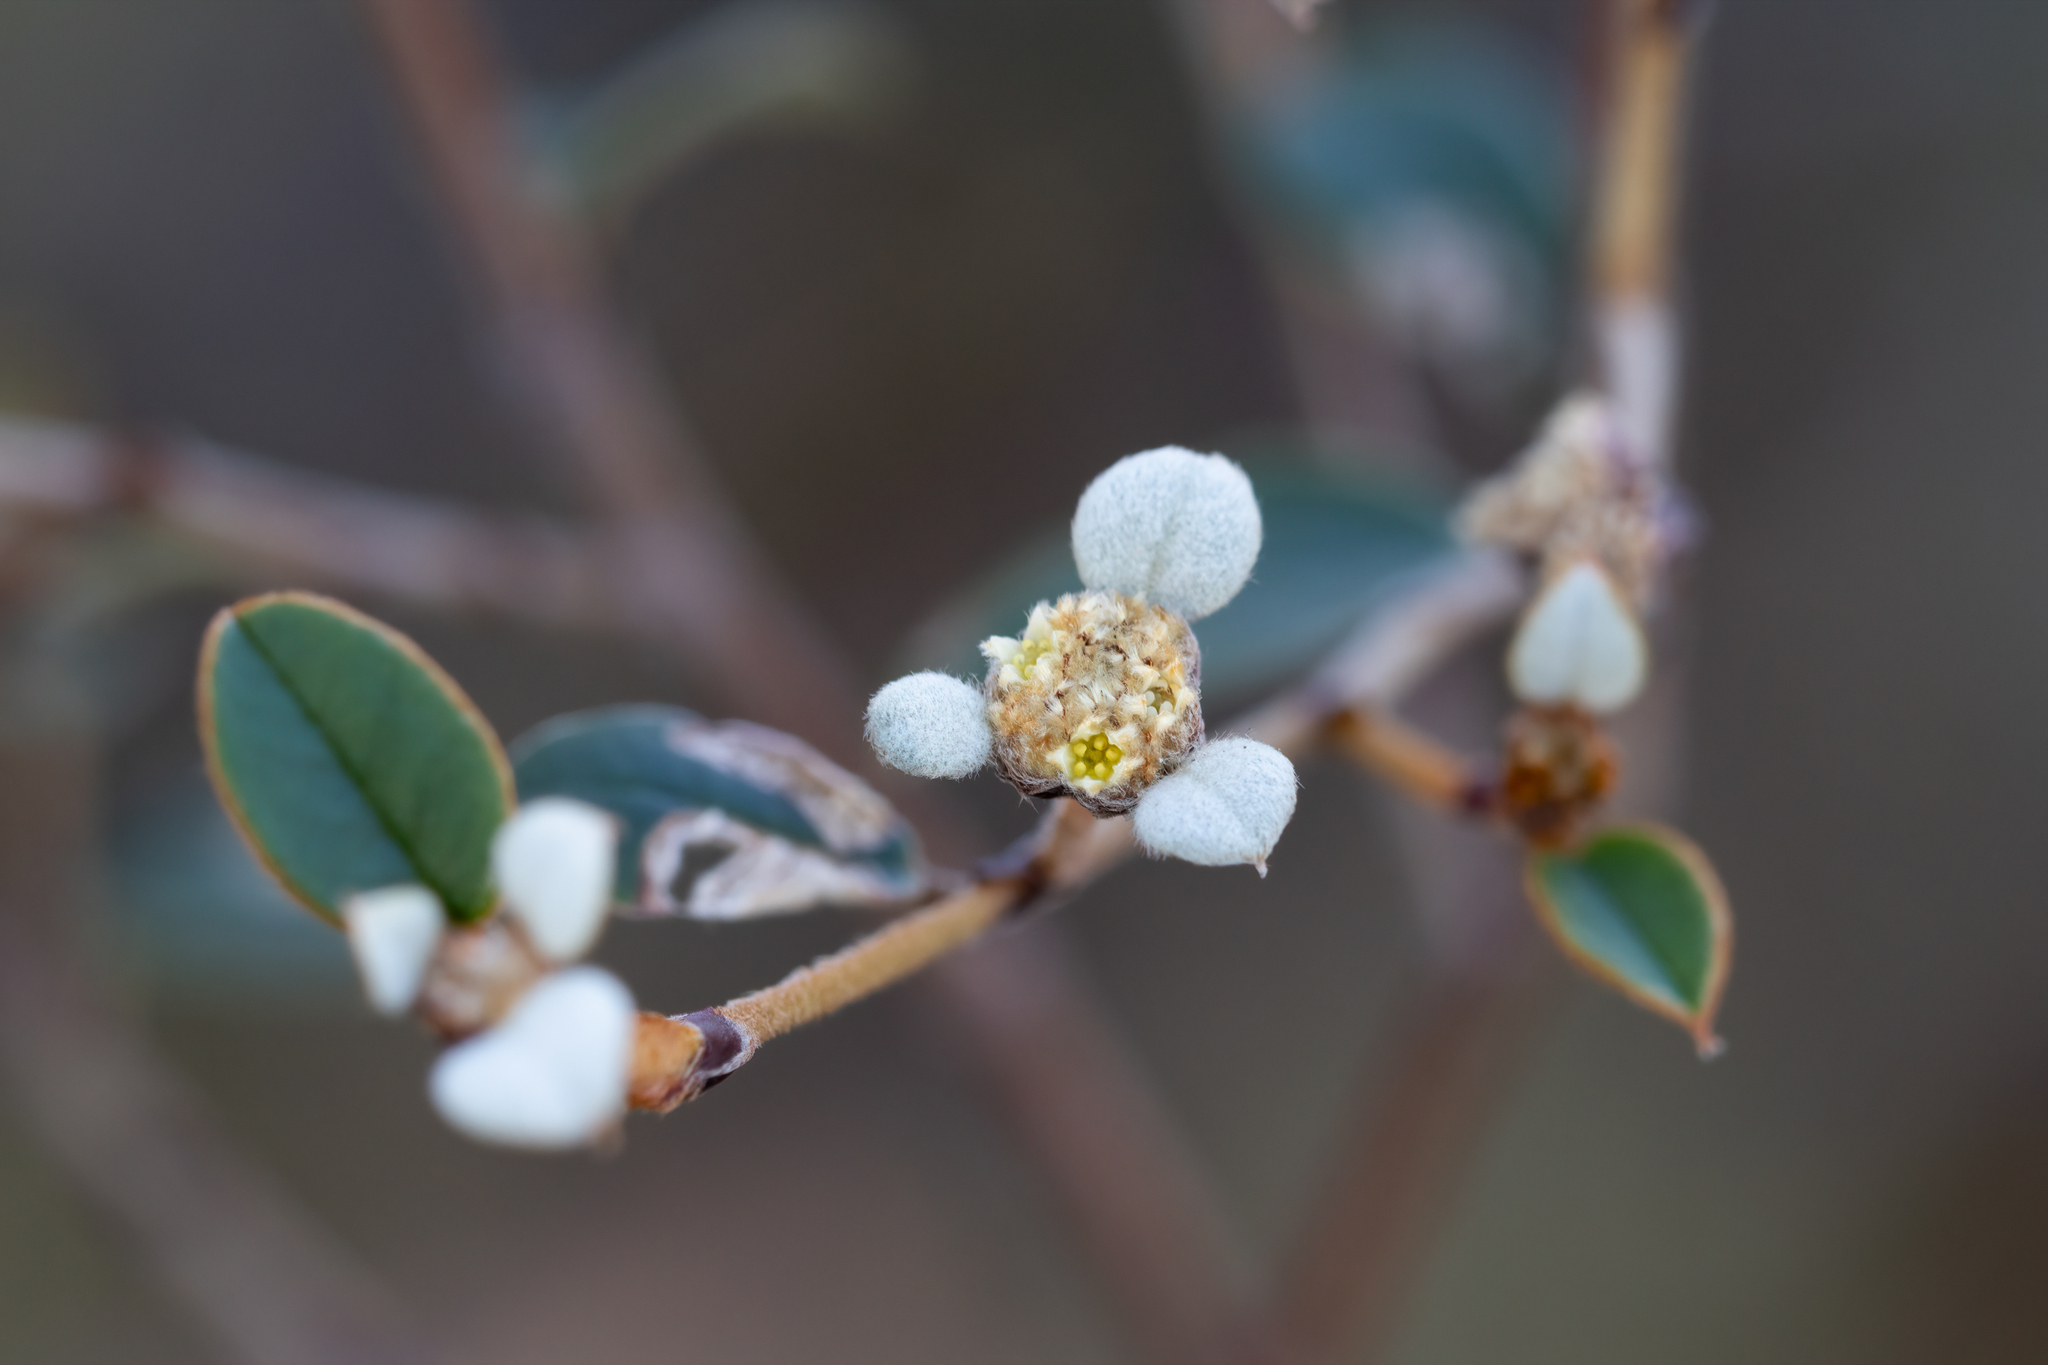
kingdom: Plantae
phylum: Tracheophyta
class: Magnoliopsida
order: Rosales
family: Rhamnaceae
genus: Spyridium
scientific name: Spyridium thymifolium
